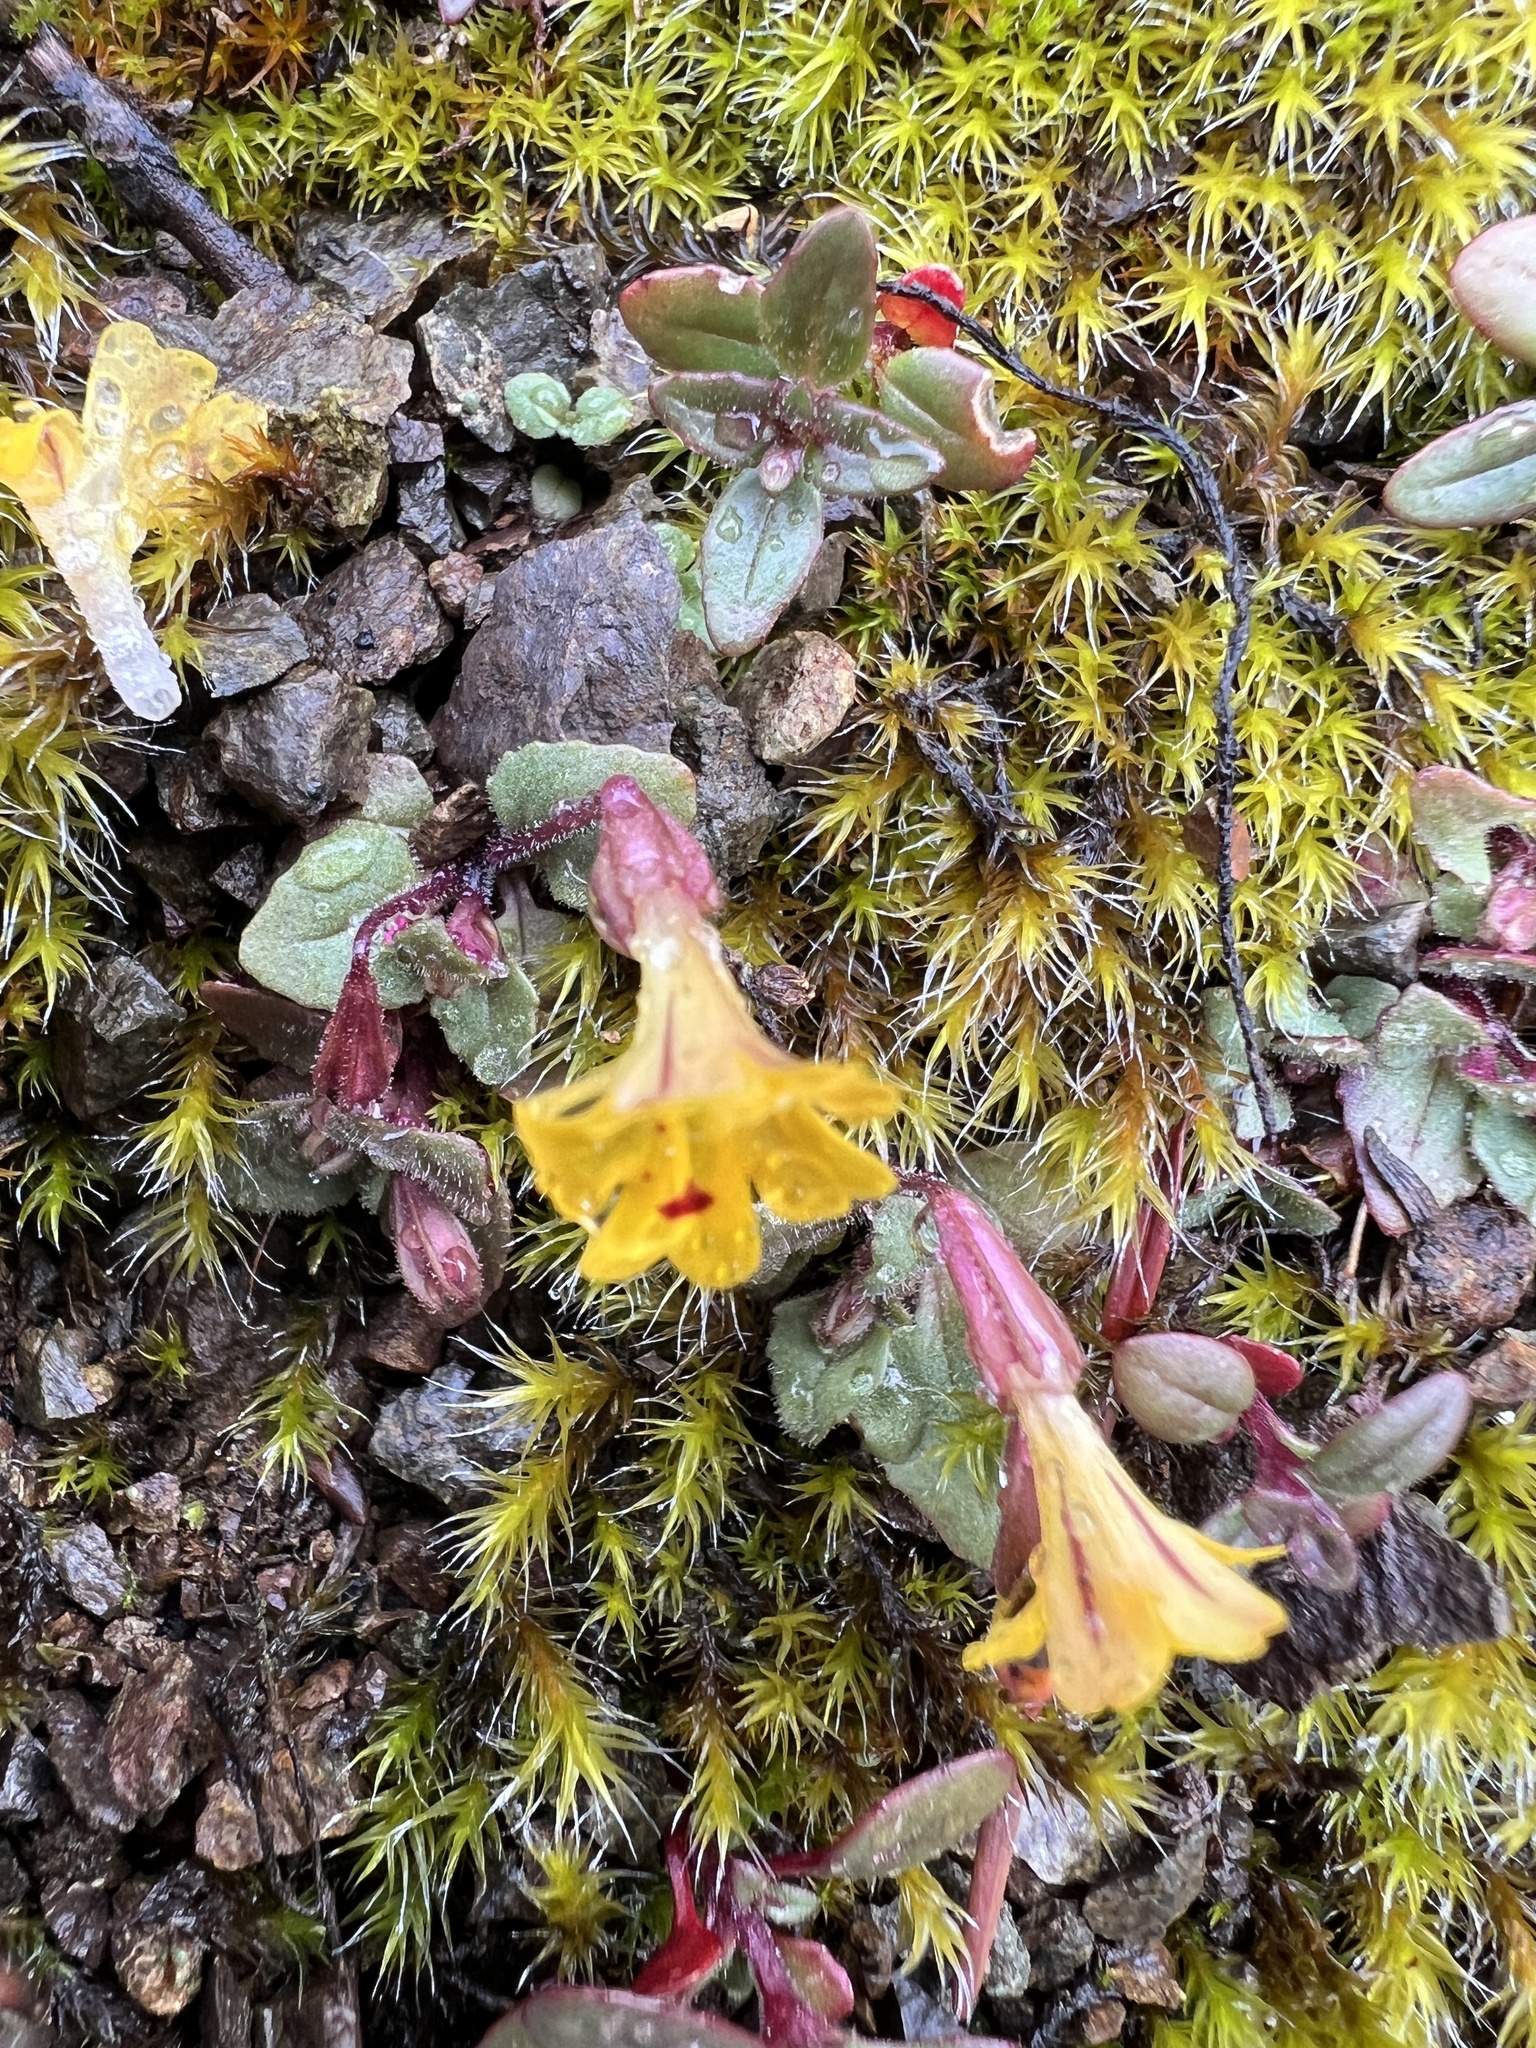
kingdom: Plantae
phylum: Tracheophyta
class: Magnoliopsida
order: Lamiales
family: Phrymaceae
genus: Erythranthe
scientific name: Erythranthe alsinoides
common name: Chickweed monkeyflower
